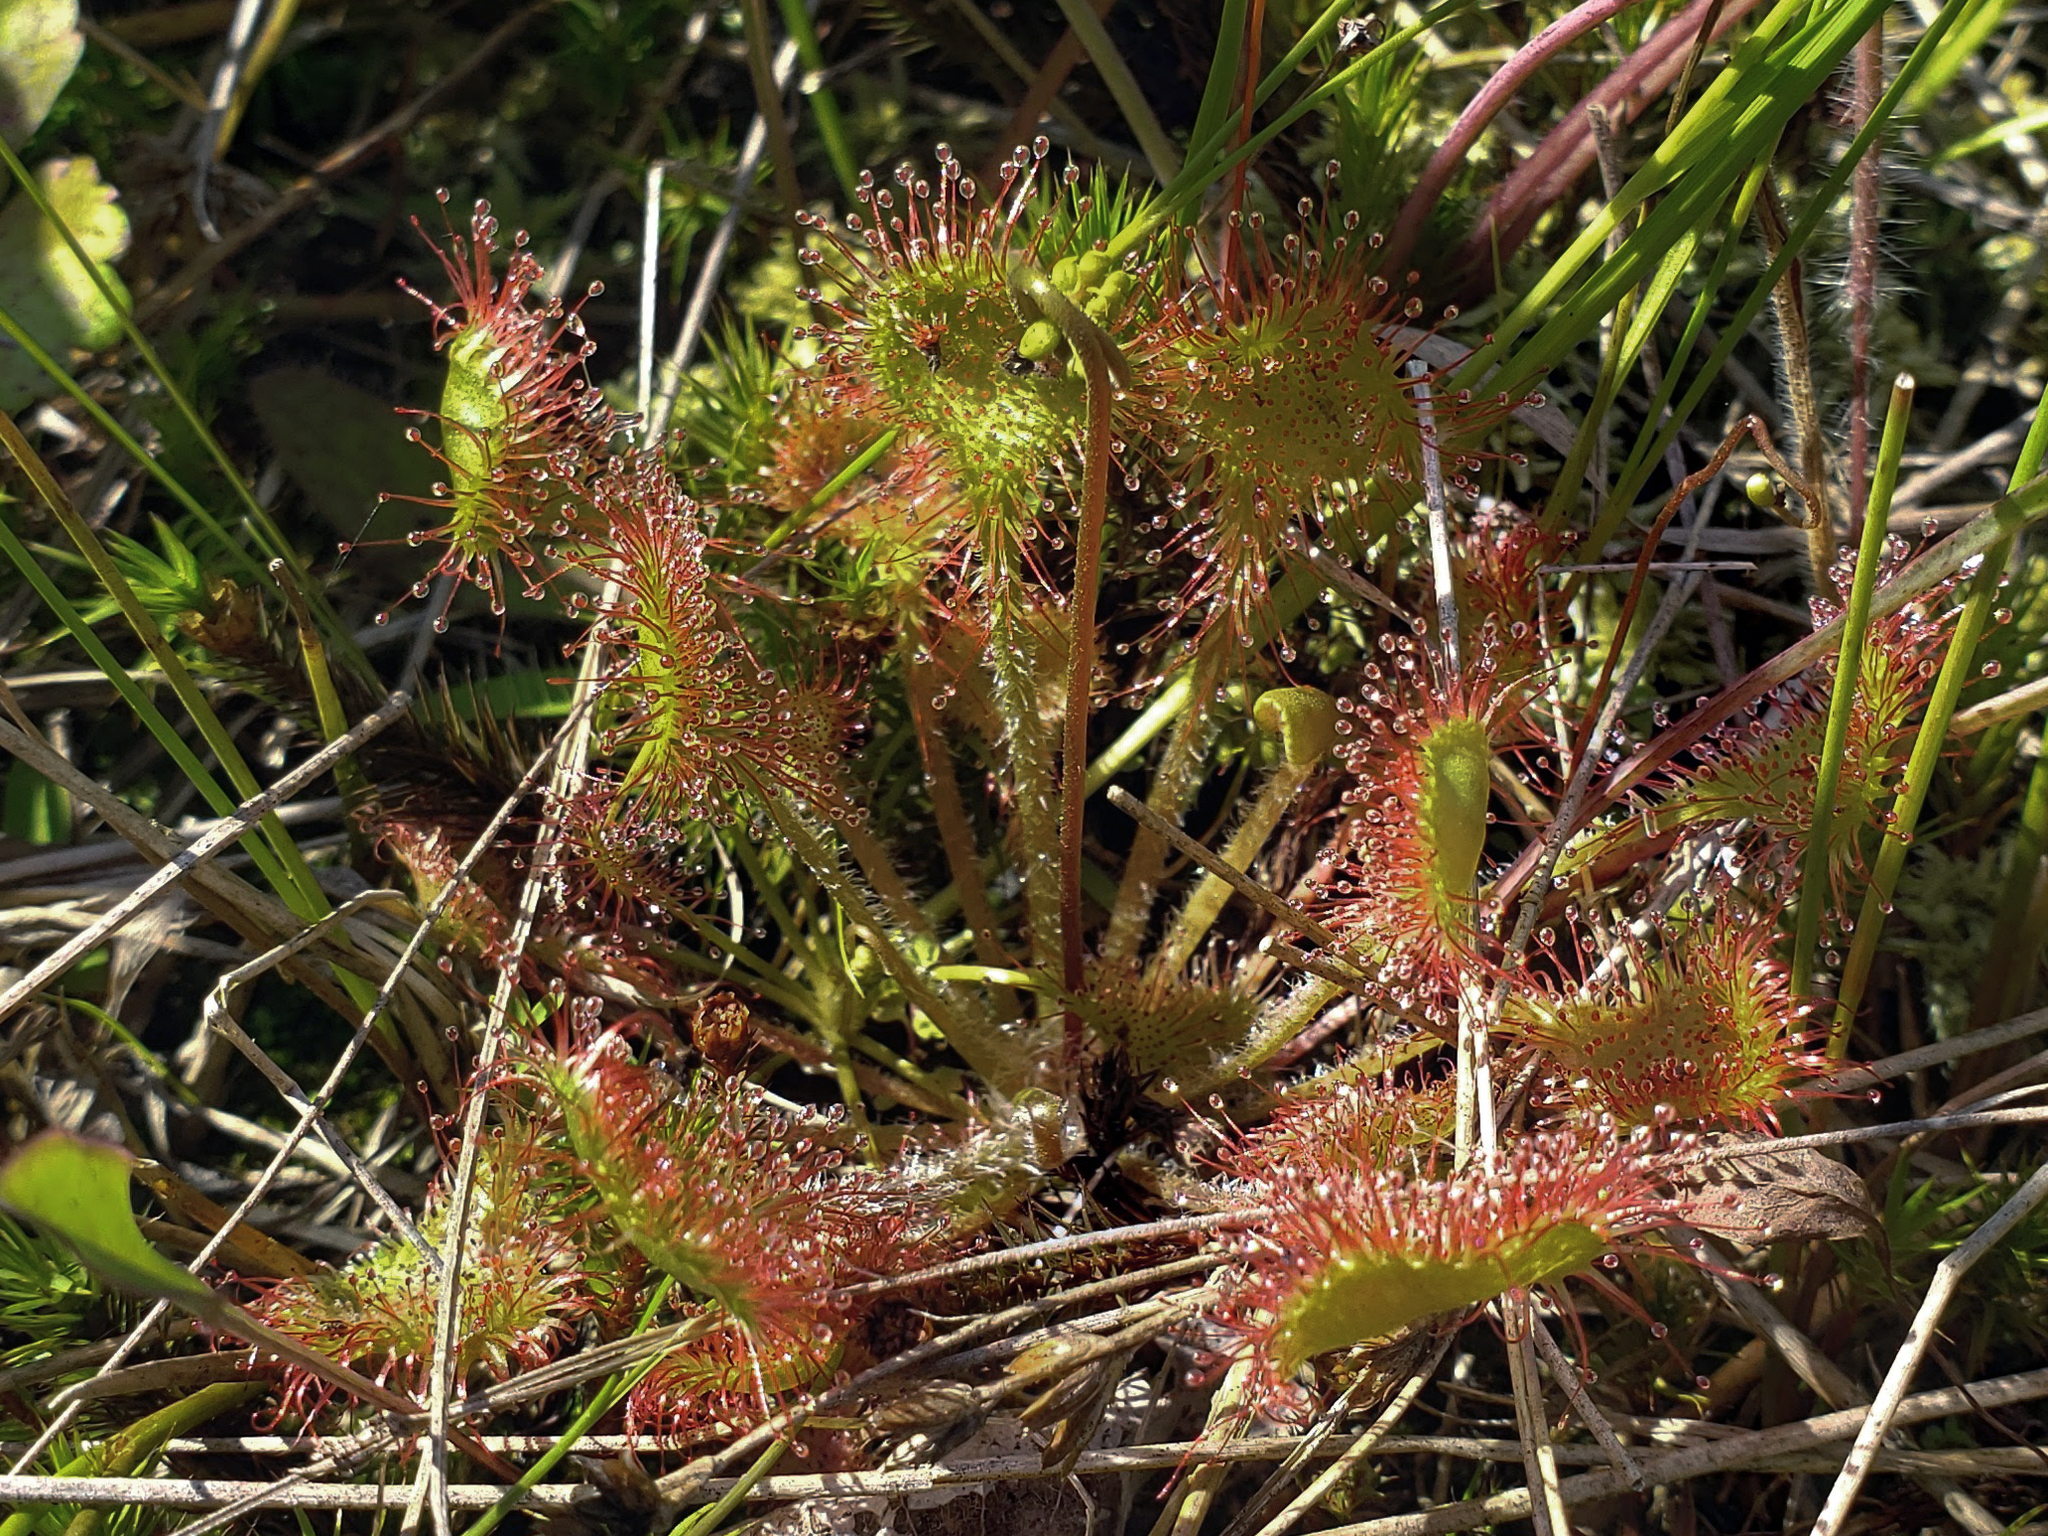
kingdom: Plantae
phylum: Tracheophyta
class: Magnoliopsida
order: Caryophyllales
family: Droseraceae
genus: Drosera
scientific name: Drosera rotundifolia
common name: Round-leaved sundew
